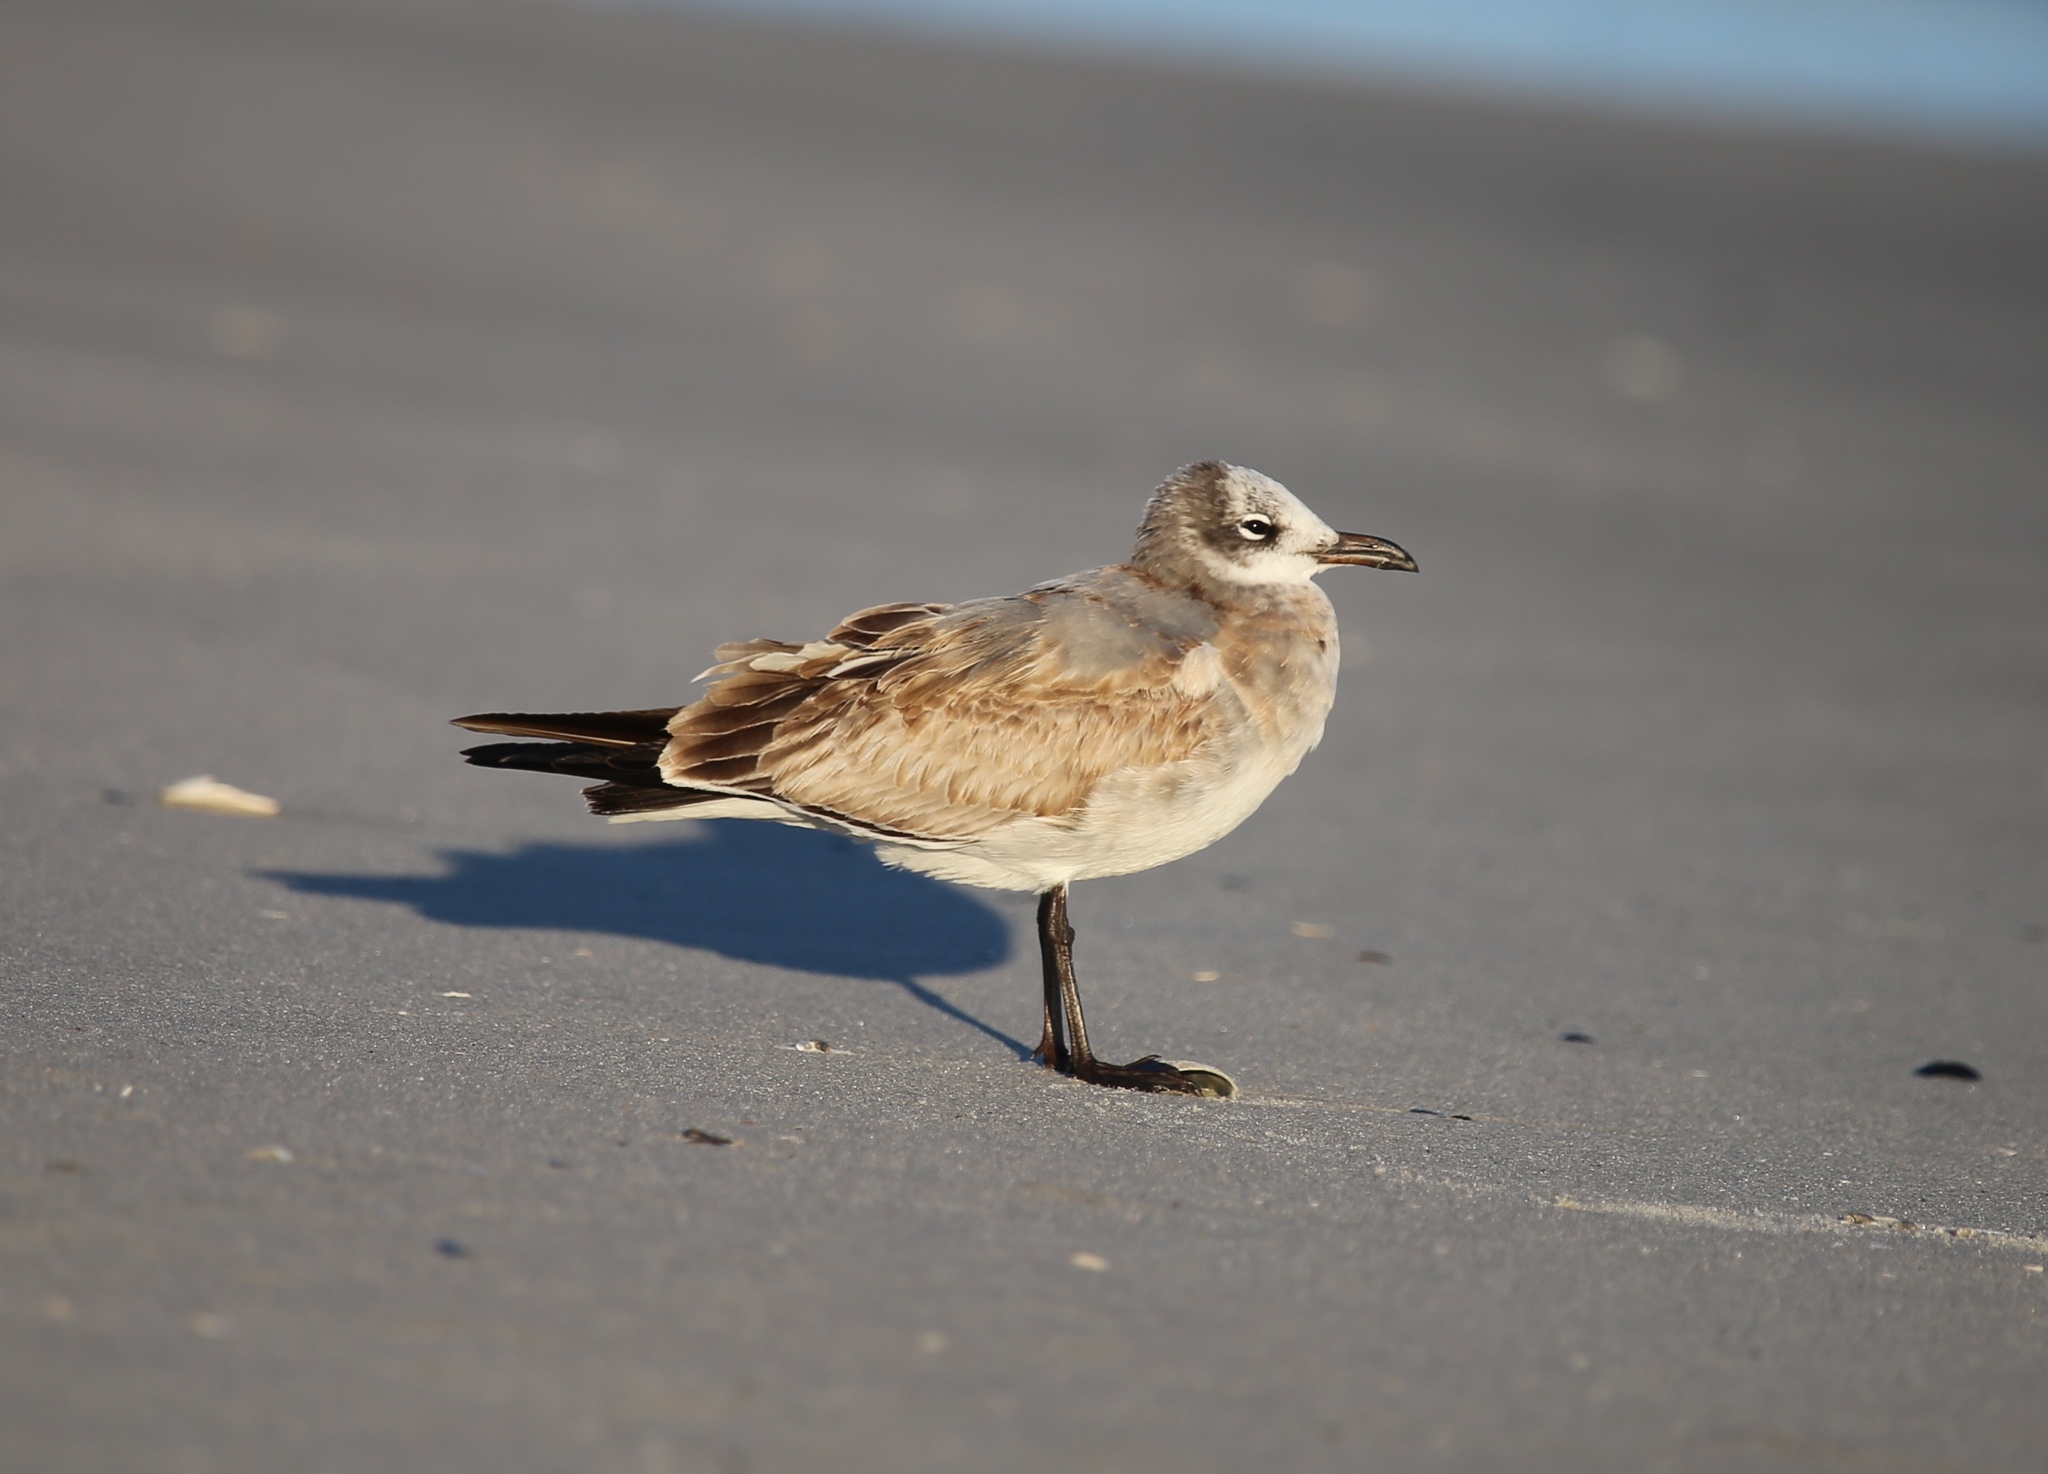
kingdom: Animalia
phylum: Chordata
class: Aves
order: Charadriiformes
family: Laridae
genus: Leucophaeus
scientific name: Leucophaeus atricilla
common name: Laughing gull
